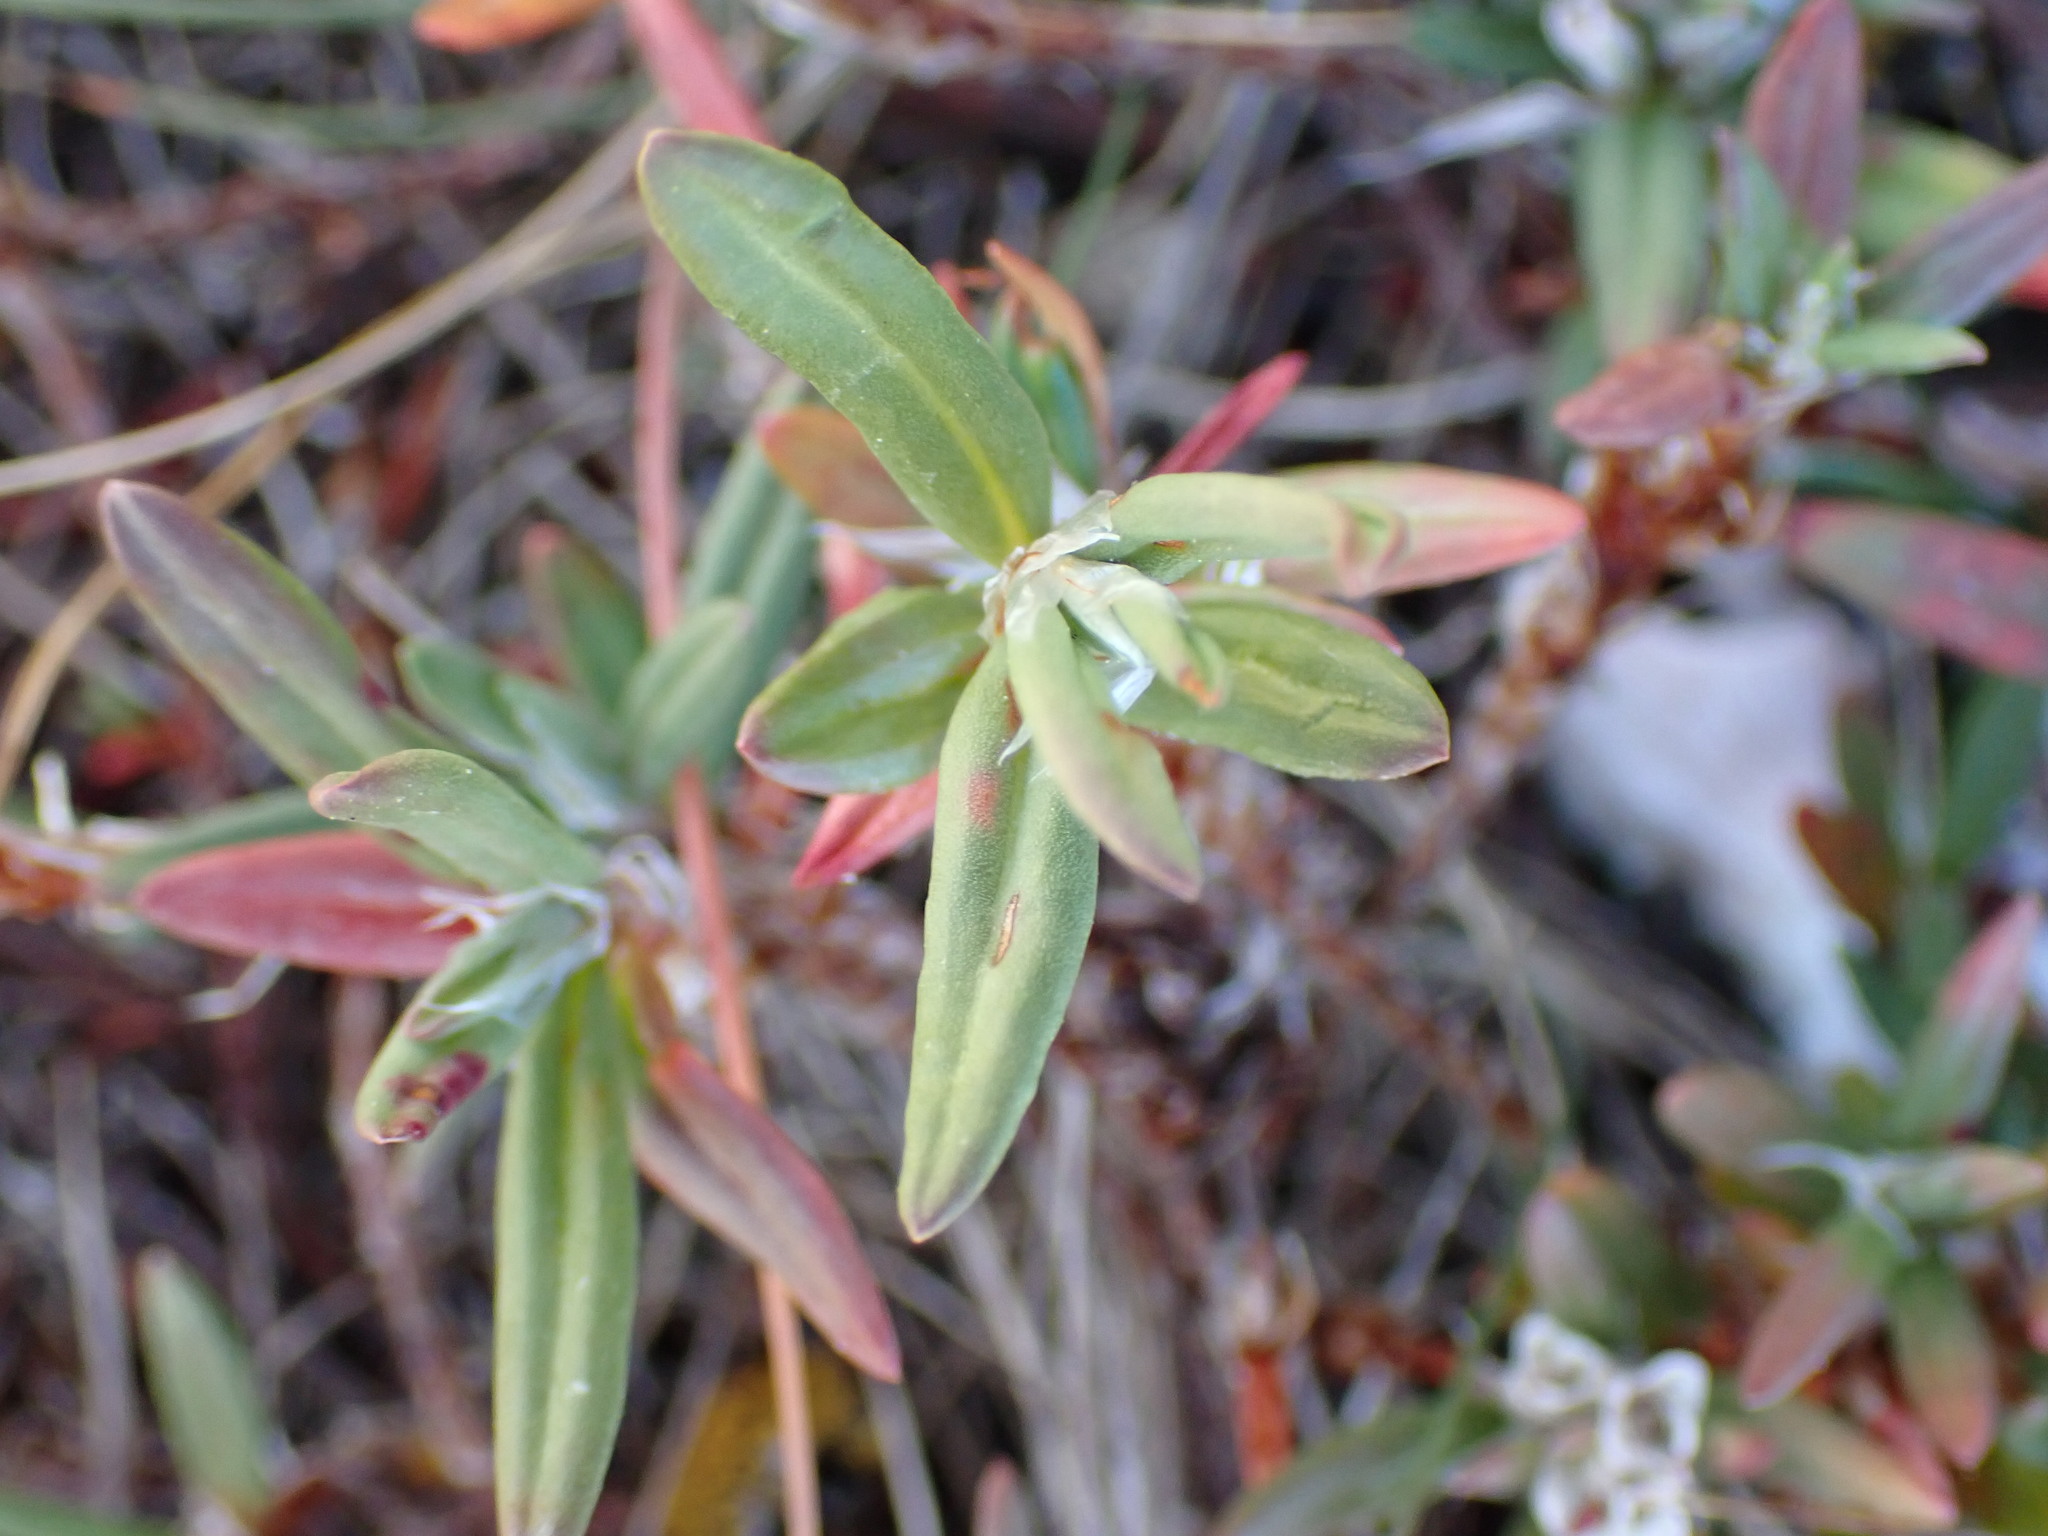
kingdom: Plantae
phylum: Tracheophyta
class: Magnoliopsida
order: Caryophyllales
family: Polygonaceae
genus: Polygonum
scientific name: Polygonum paronychia
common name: Dune knotweed
